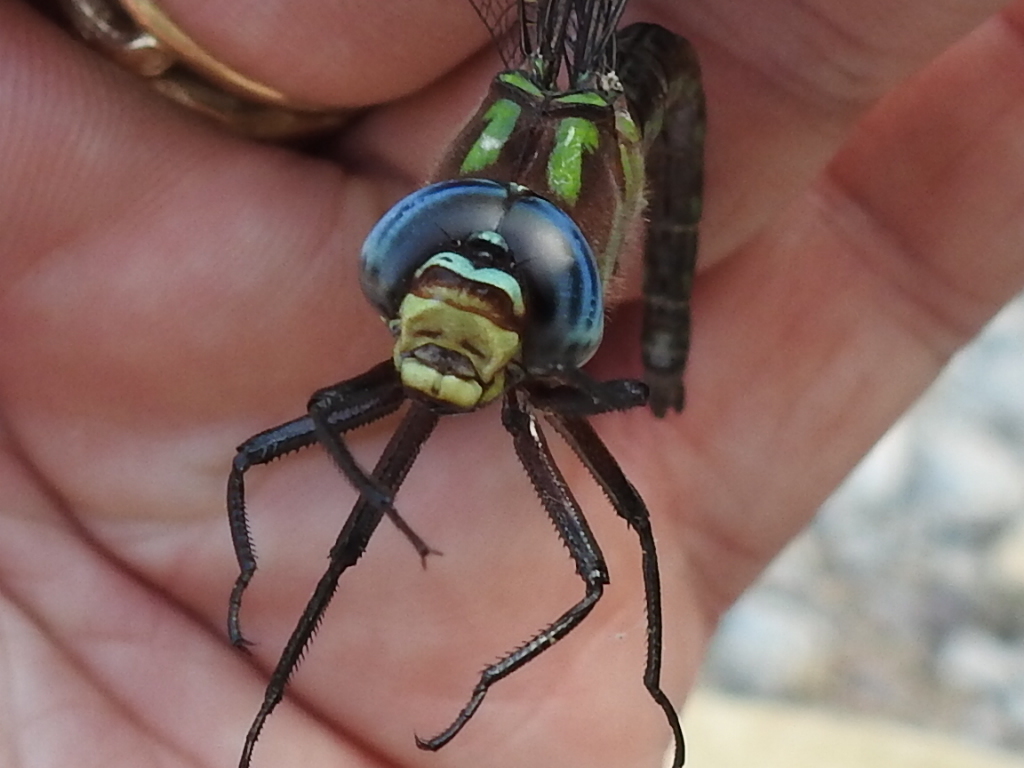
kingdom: Animalia
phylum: Arthropoda
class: Insecta
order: Odonata
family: Aeshnidae
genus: Nasiaeschna
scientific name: Nasiaeschna pentacantha
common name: Cyrano darner
